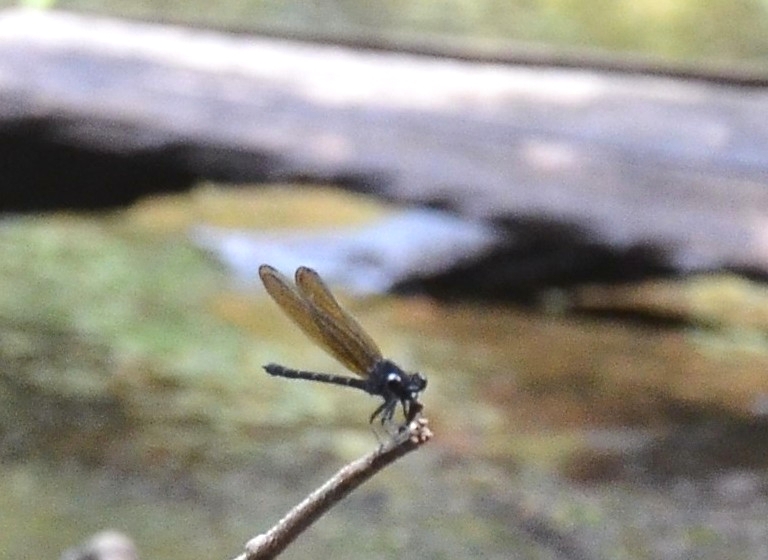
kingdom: Animalia
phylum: Arthropoda
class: Insecta
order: Odonata
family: Euphaeidae
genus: Dysphaea
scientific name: Dysphaea ethela
